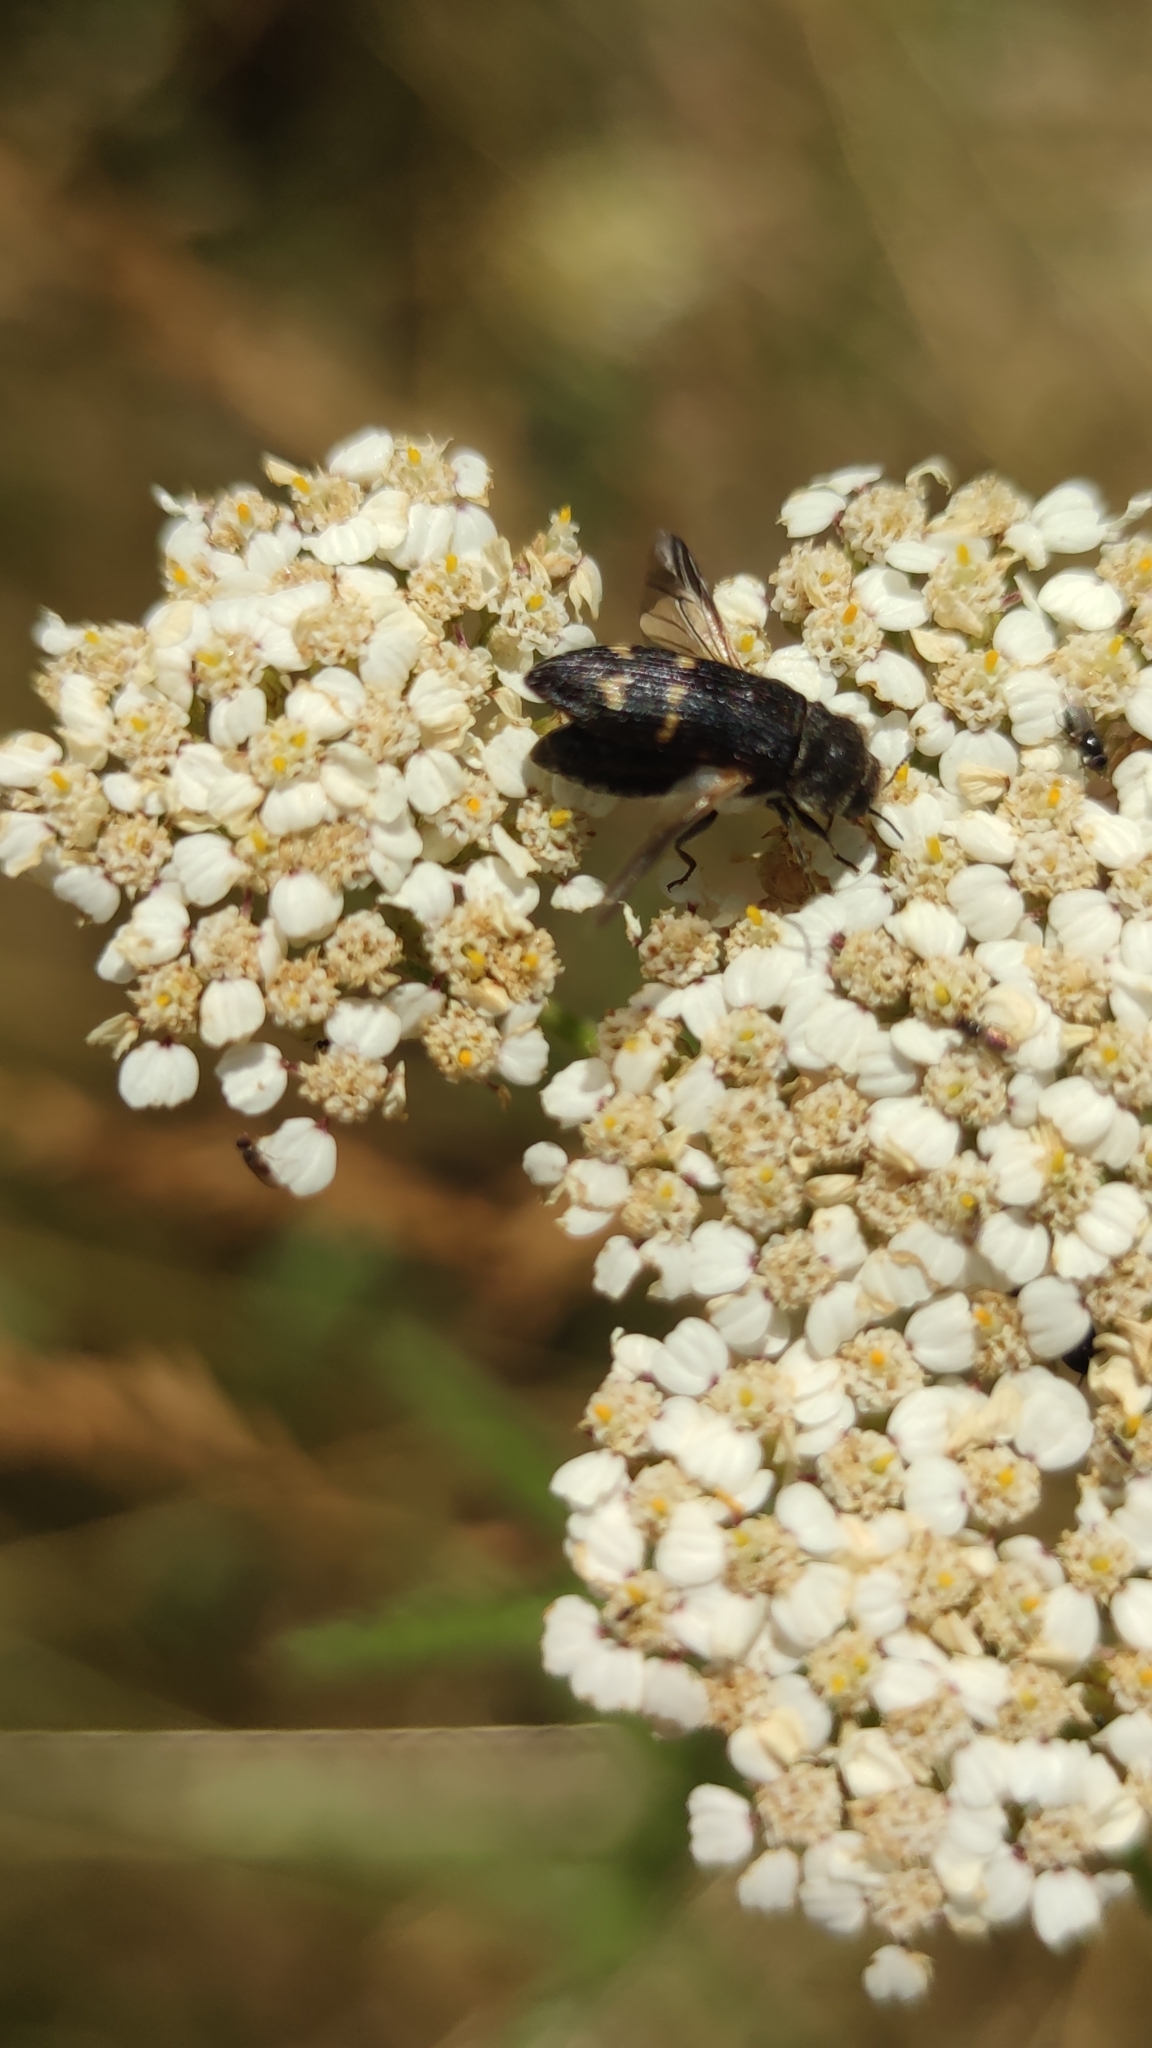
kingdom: Animalia
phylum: Arthropoda
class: Insecta
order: Coleoptera
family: Buprestidae
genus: Acmaeoderella
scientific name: Acmaeoderella flavofasciata
